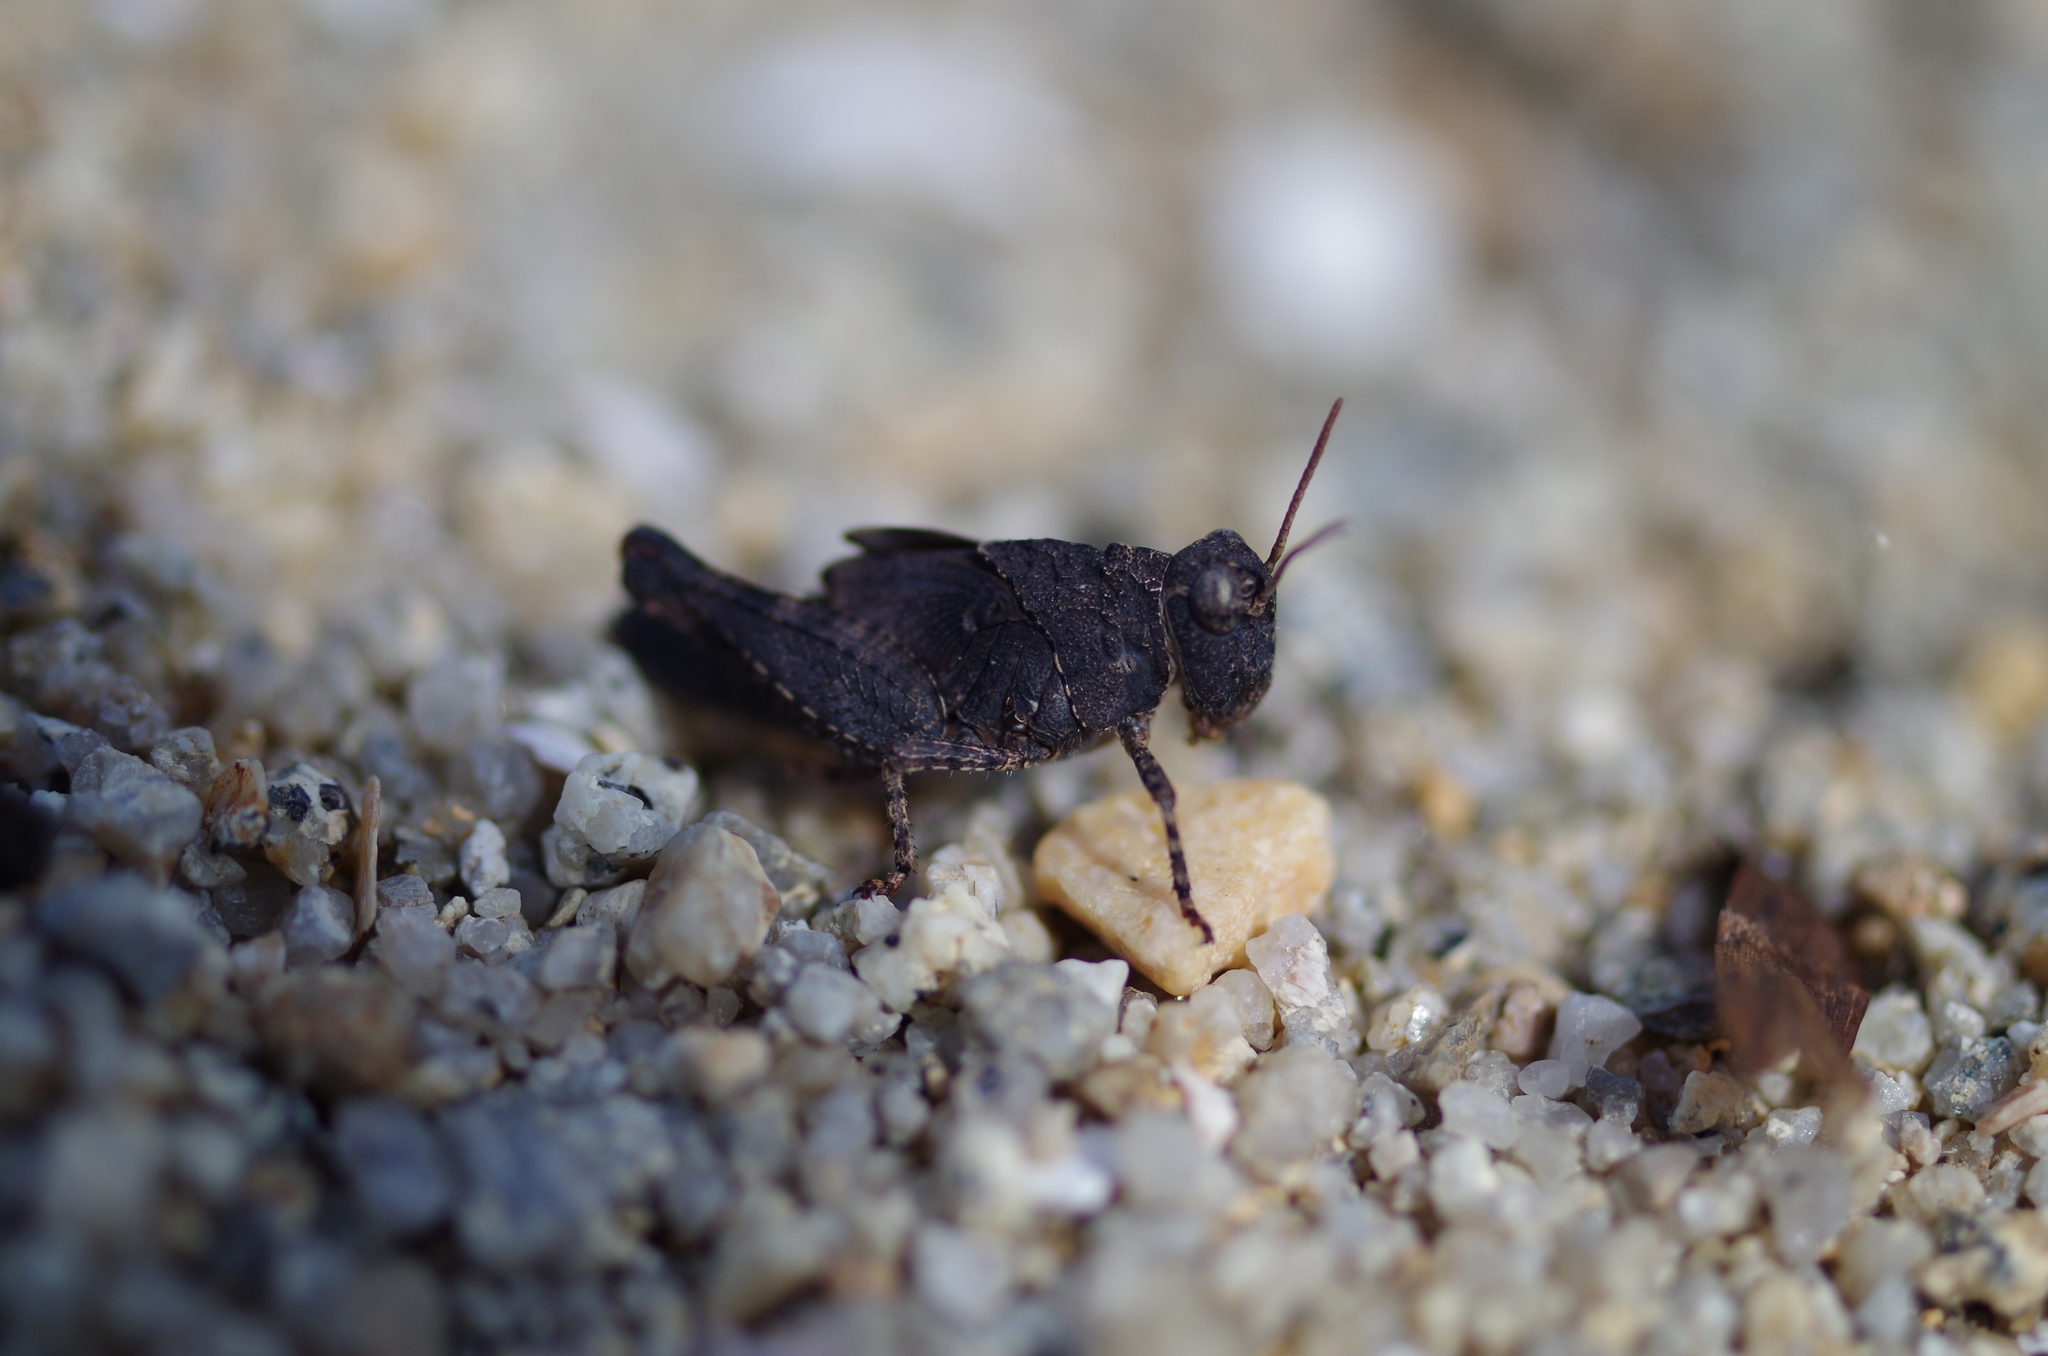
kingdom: Animalia
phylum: Arthropoda
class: Insecta
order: Orthoptera
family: Acrididae
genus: Oedipoda
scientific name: Oedipoda caerulescens
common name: Blue-winged grasshopper
